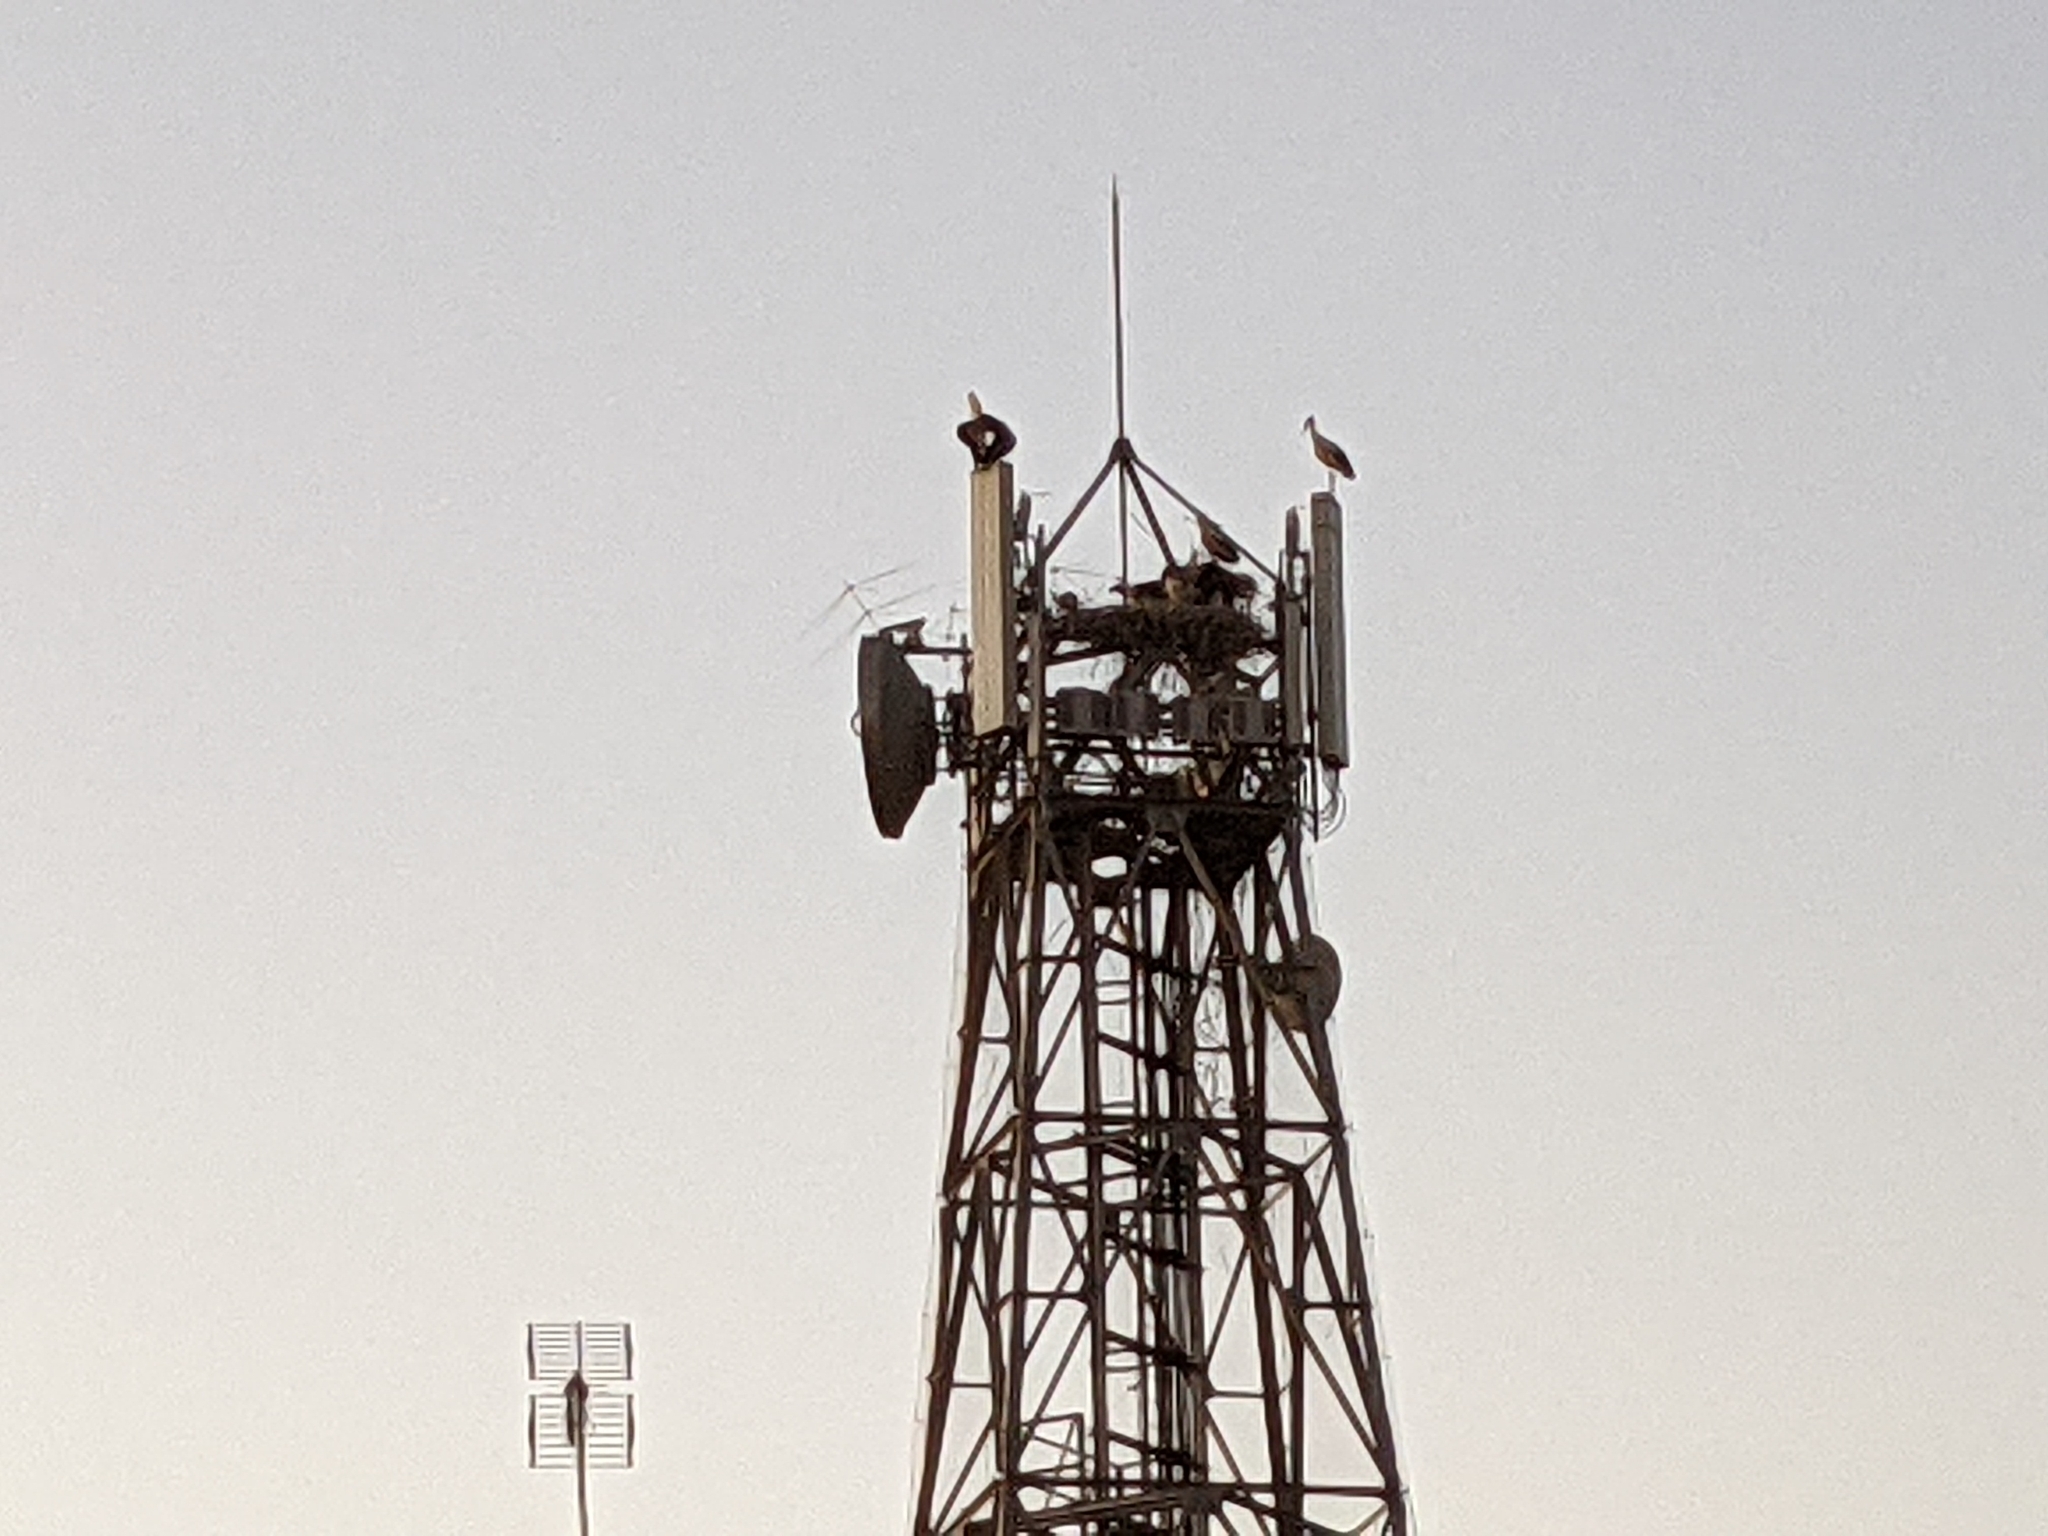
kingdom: Animalia
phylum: Chordata
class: Aves
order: Ciconiiformes
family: Ciconiidae
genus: Ciconia
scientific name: Ciconia ciconia
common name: White stork
